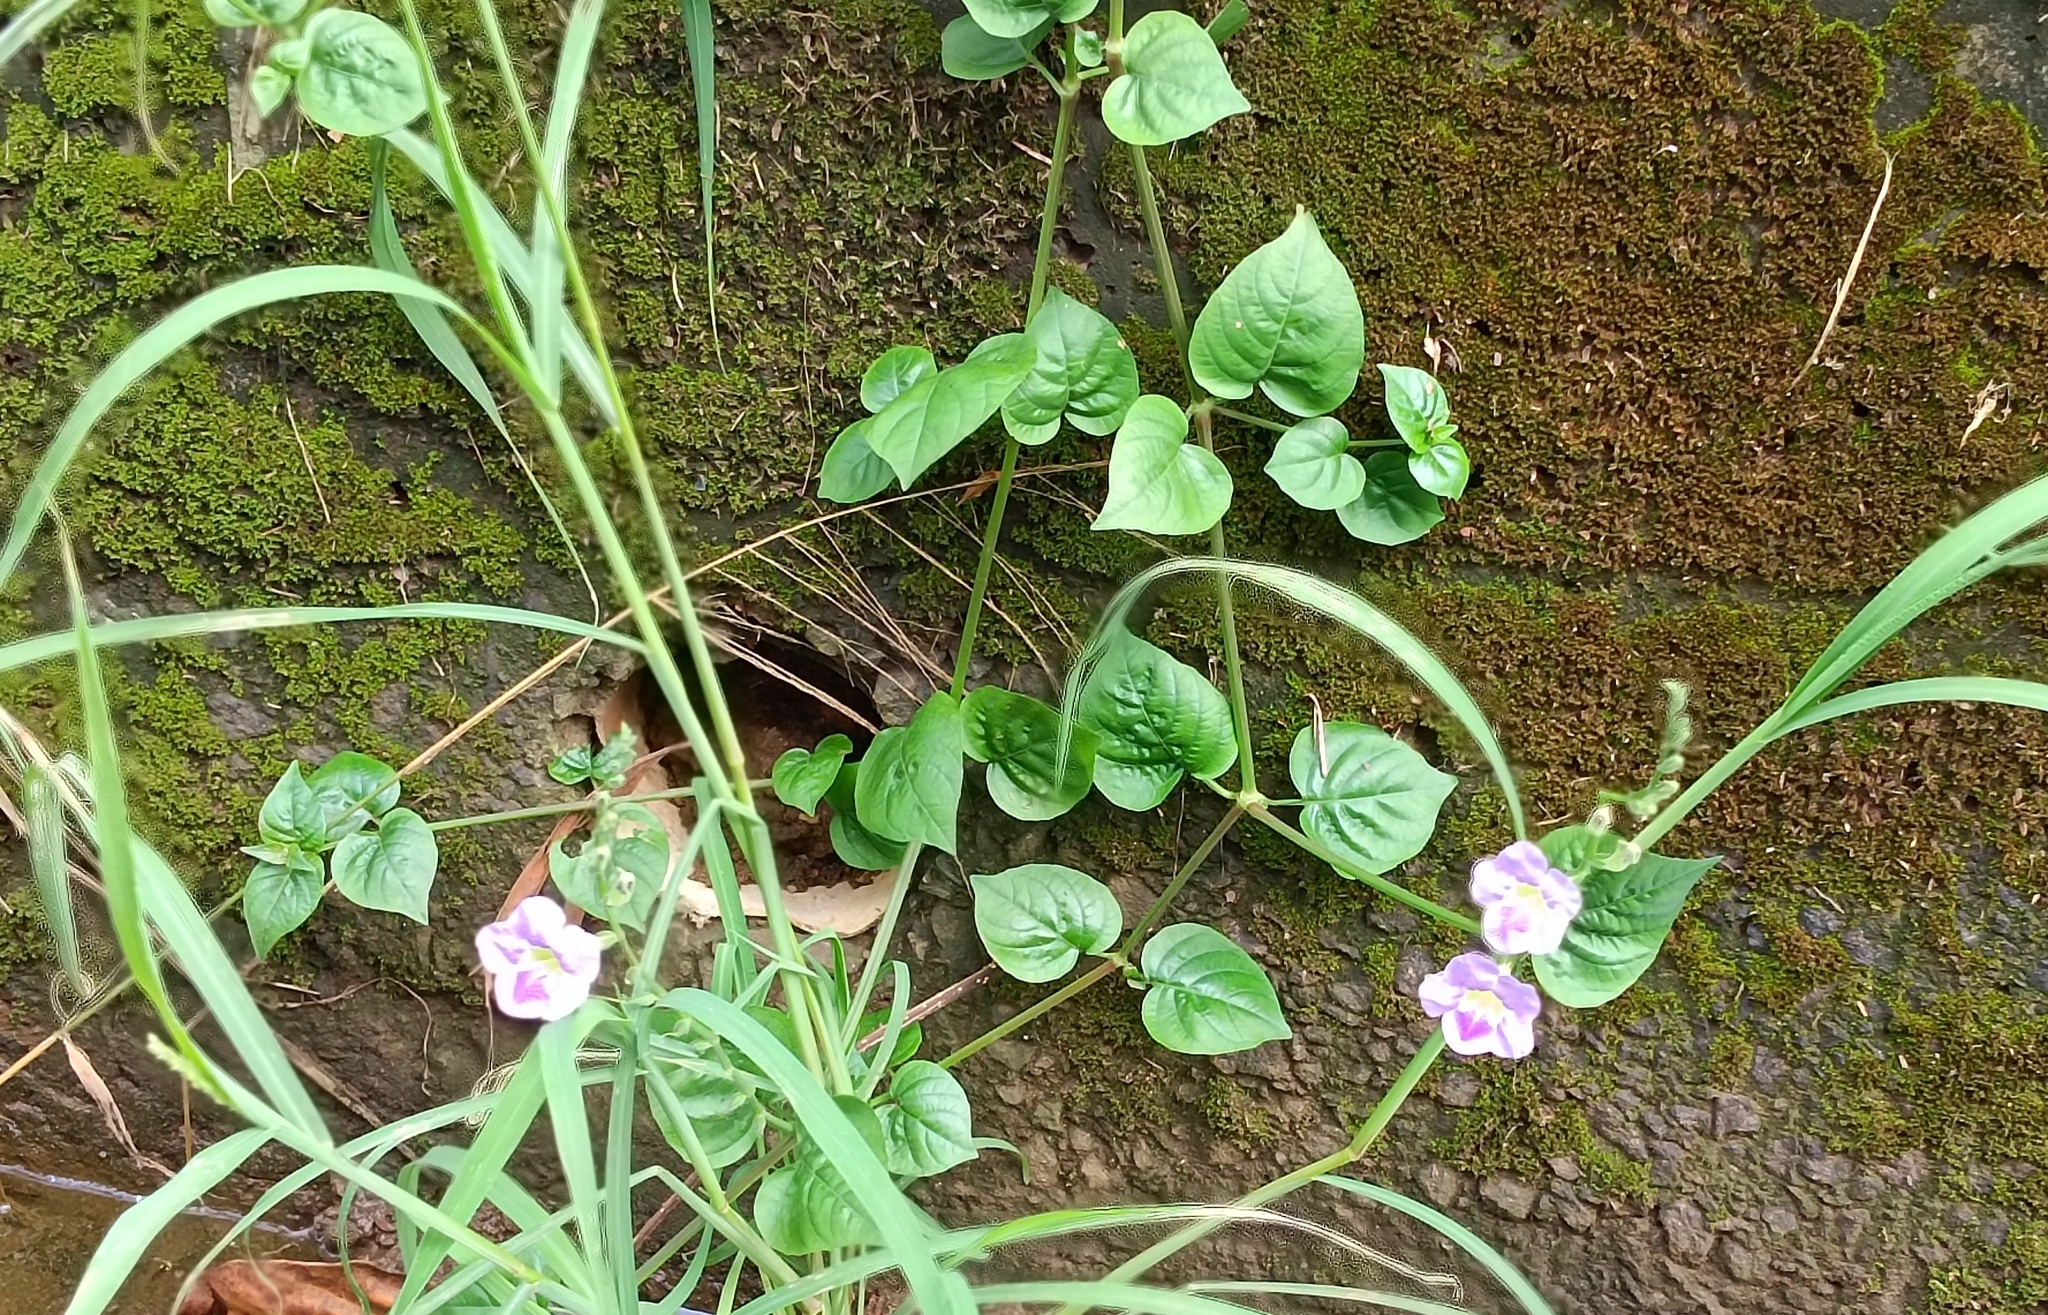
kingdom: Plantae
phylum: Tracheophyta
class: Magnoliopsida
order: Lamiales
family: Acanthaceae
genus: Asystasia
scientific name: Asystasia gangetica
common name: Chinese violet
